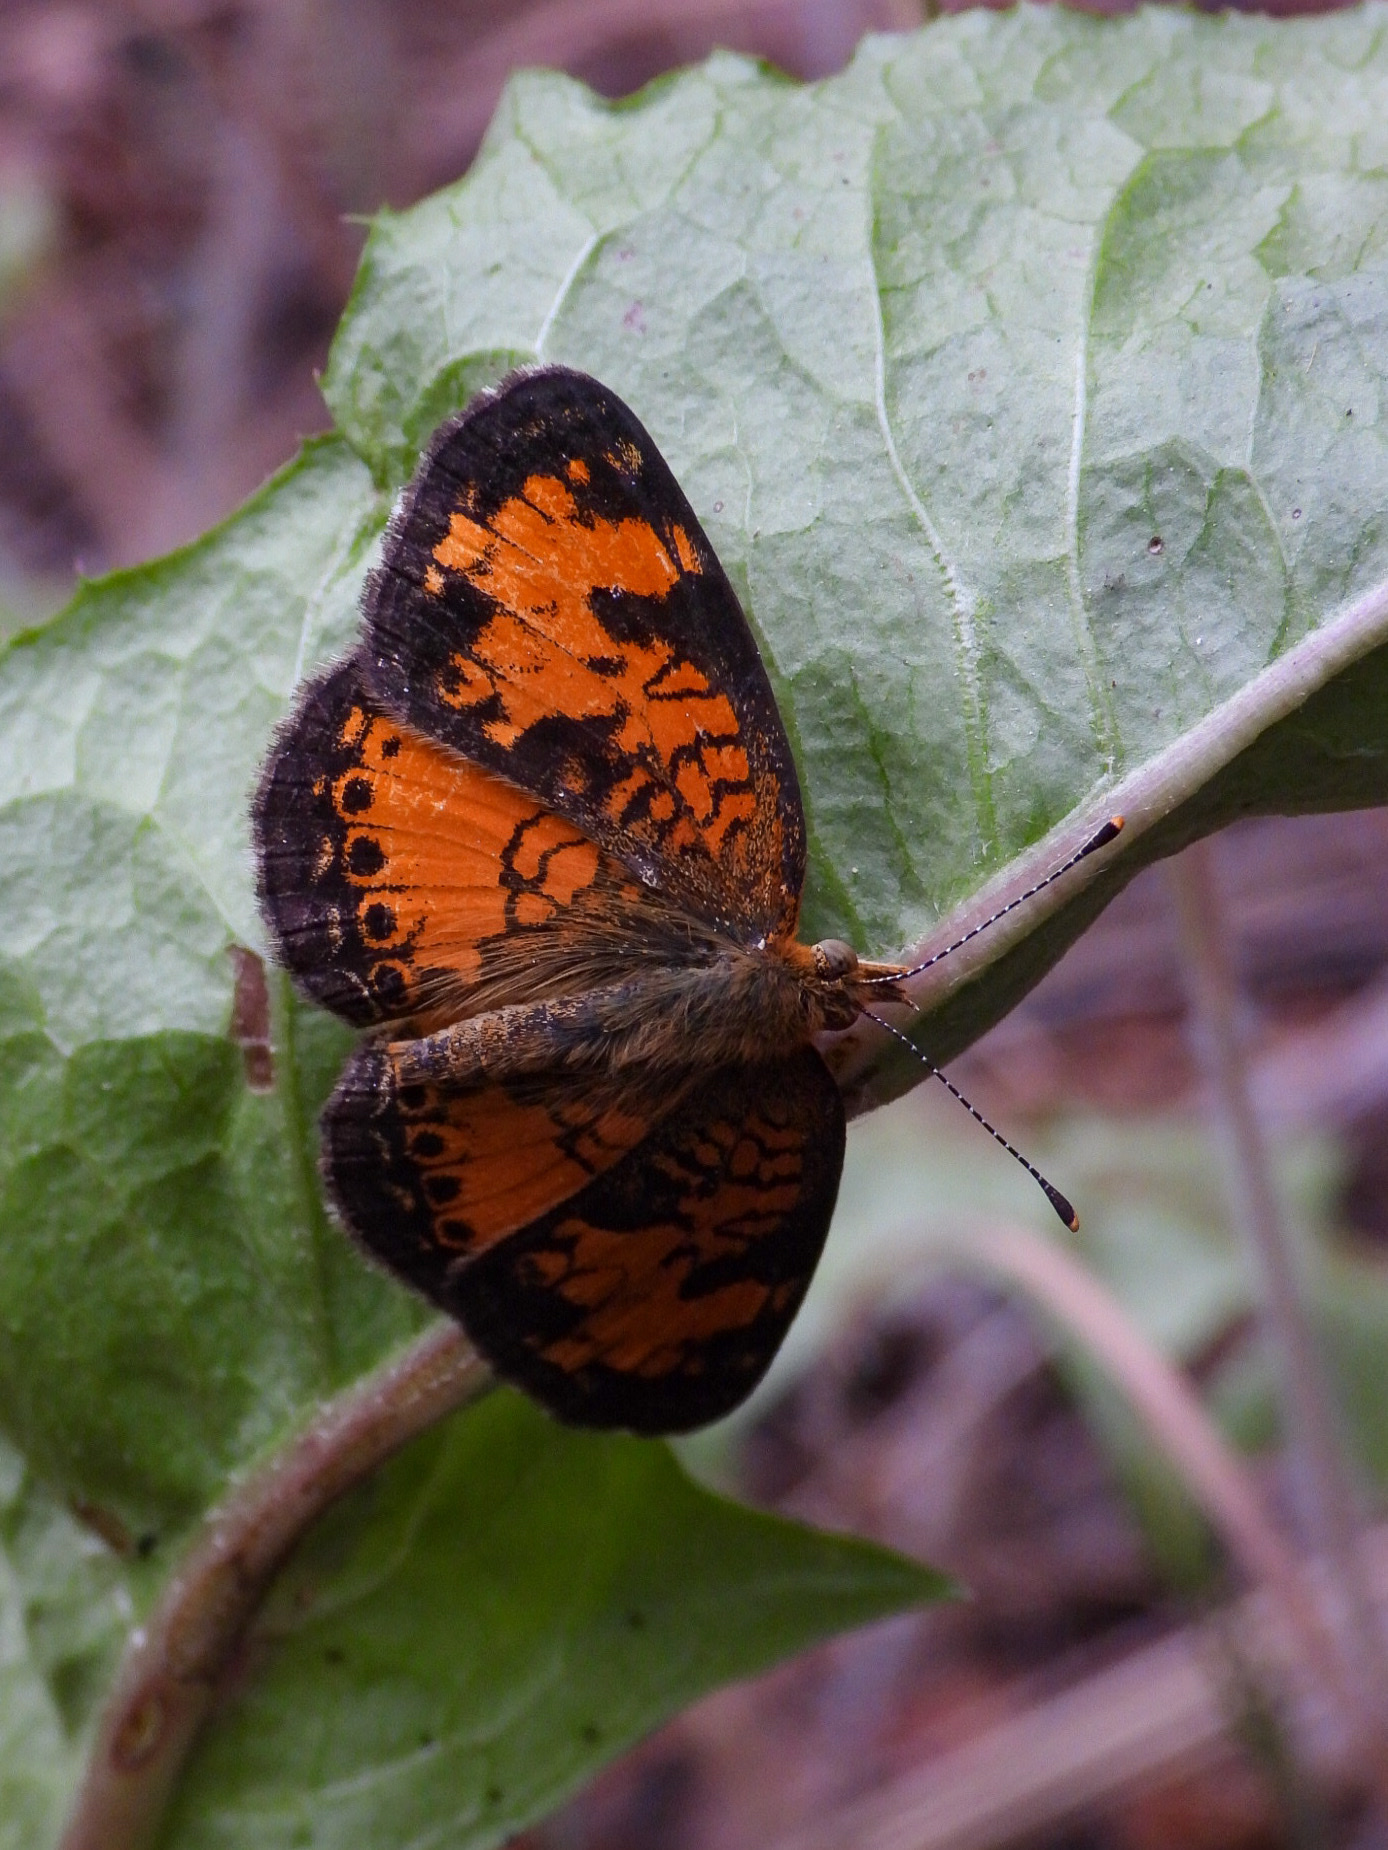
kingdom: Animalia
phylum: Arthropoda
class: Insecta
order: Lepidoptera
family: Nymphalidae
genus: Phyciodes
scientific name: Phyciodes tharos
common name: Pearl crescent
